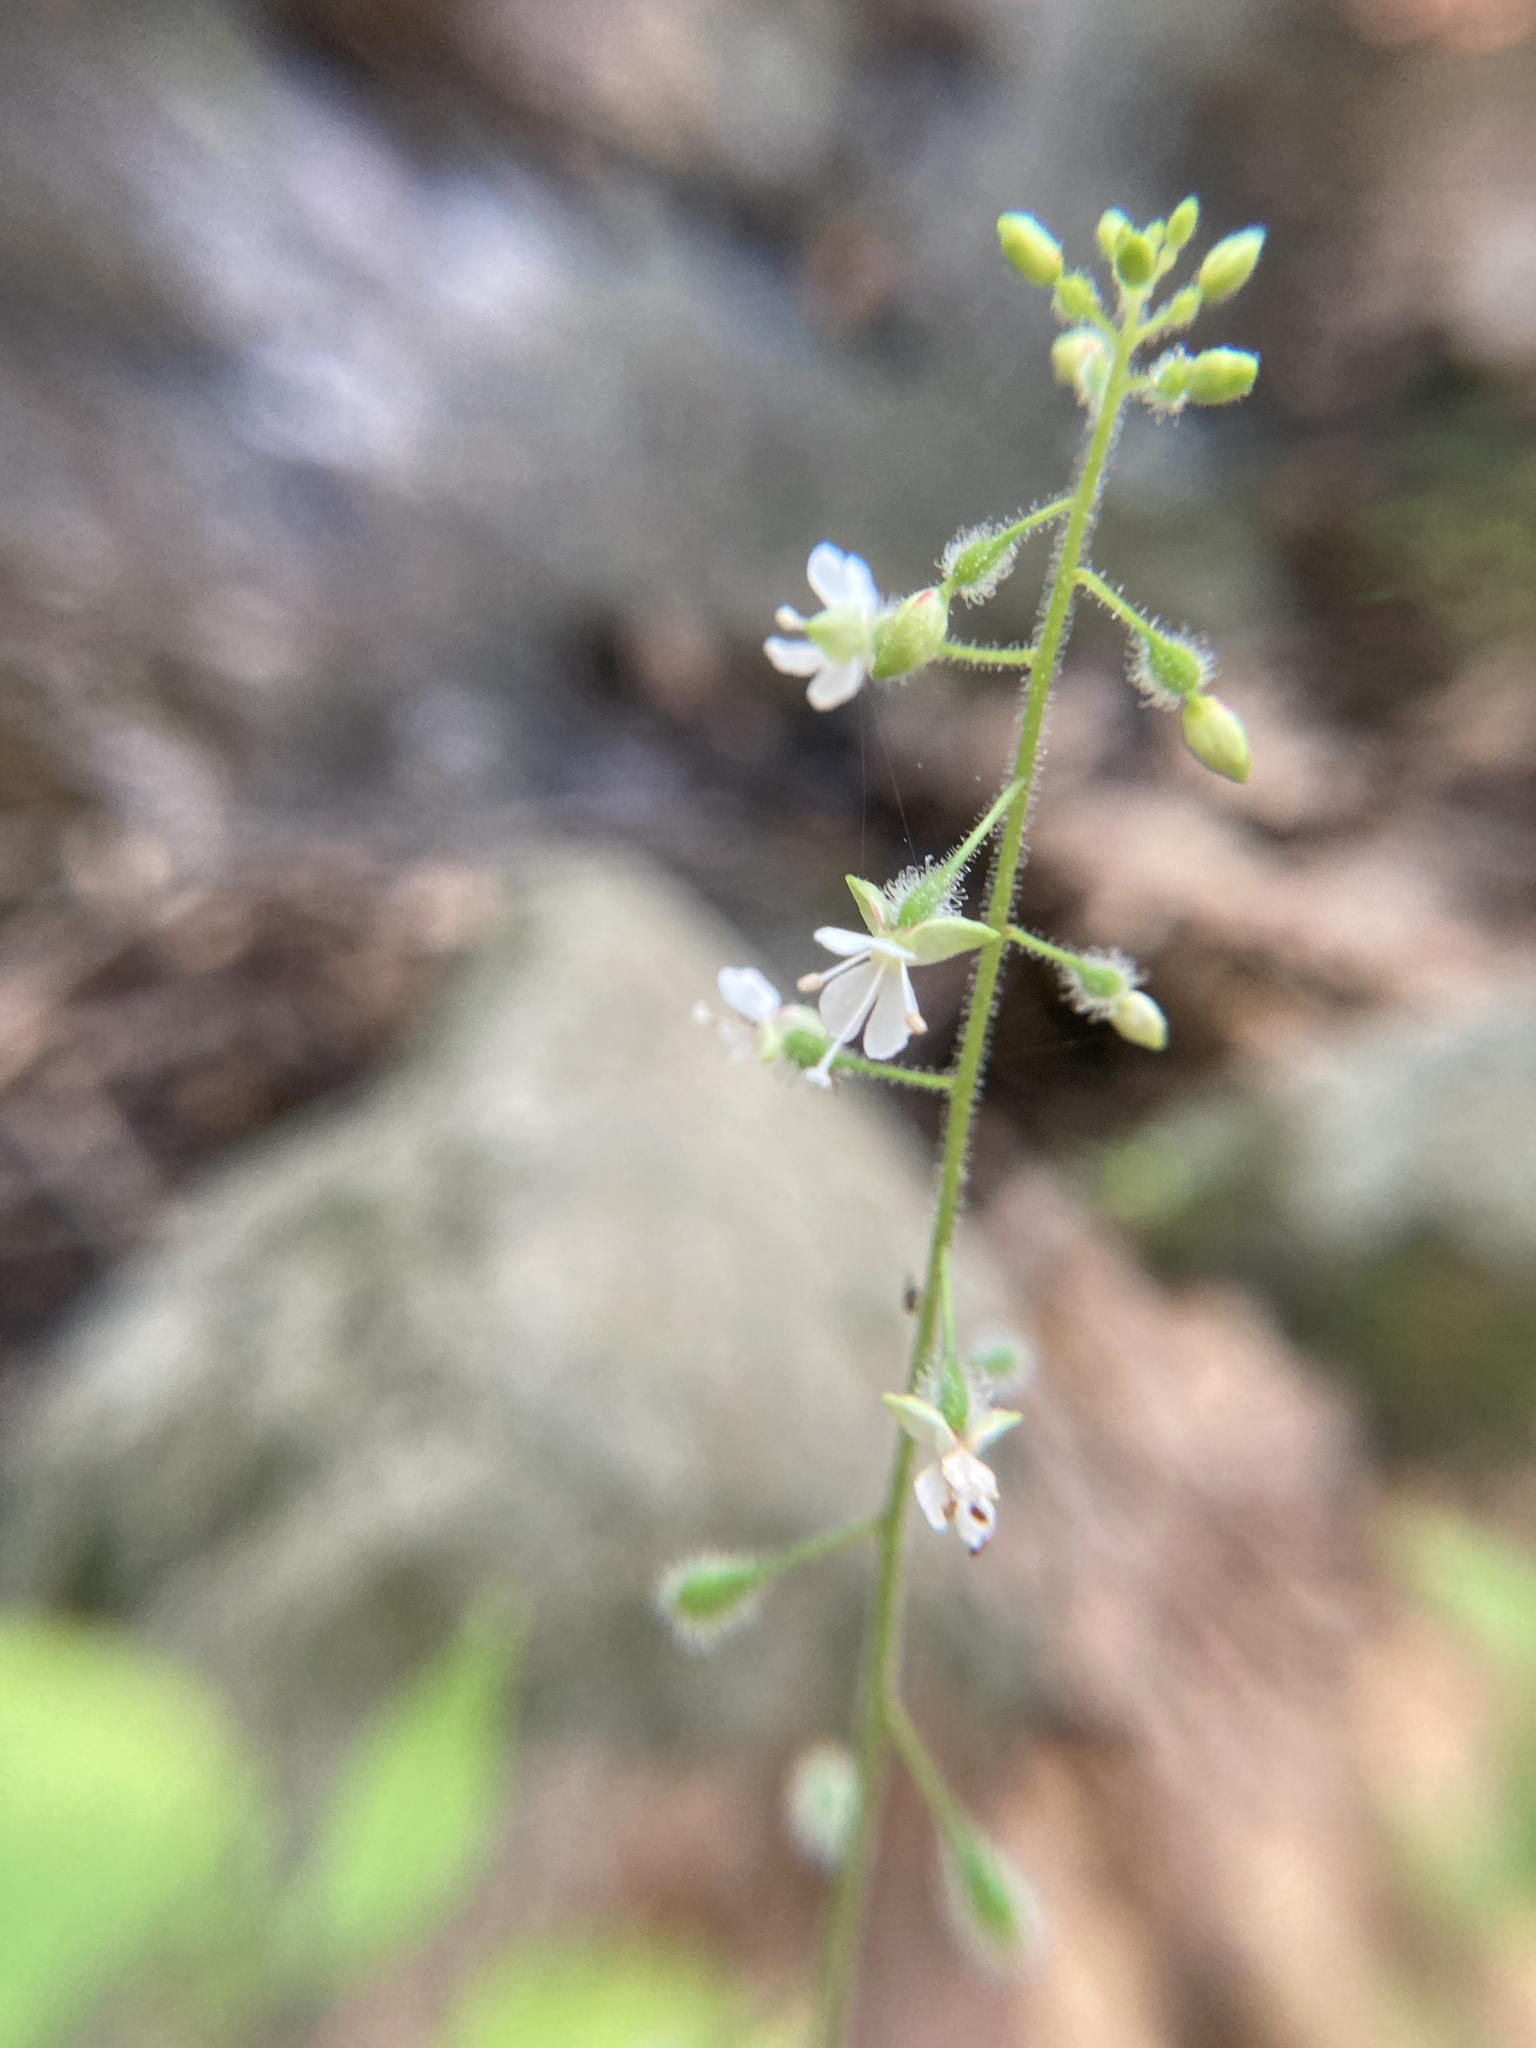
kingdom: Plantae
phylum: Tracheophyta
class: Magnoliopsida
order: Myrtales
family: Onagraceae
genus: Circaea
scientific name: Circaea canadensis
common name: Broad-leaved enchanter's nightshade
